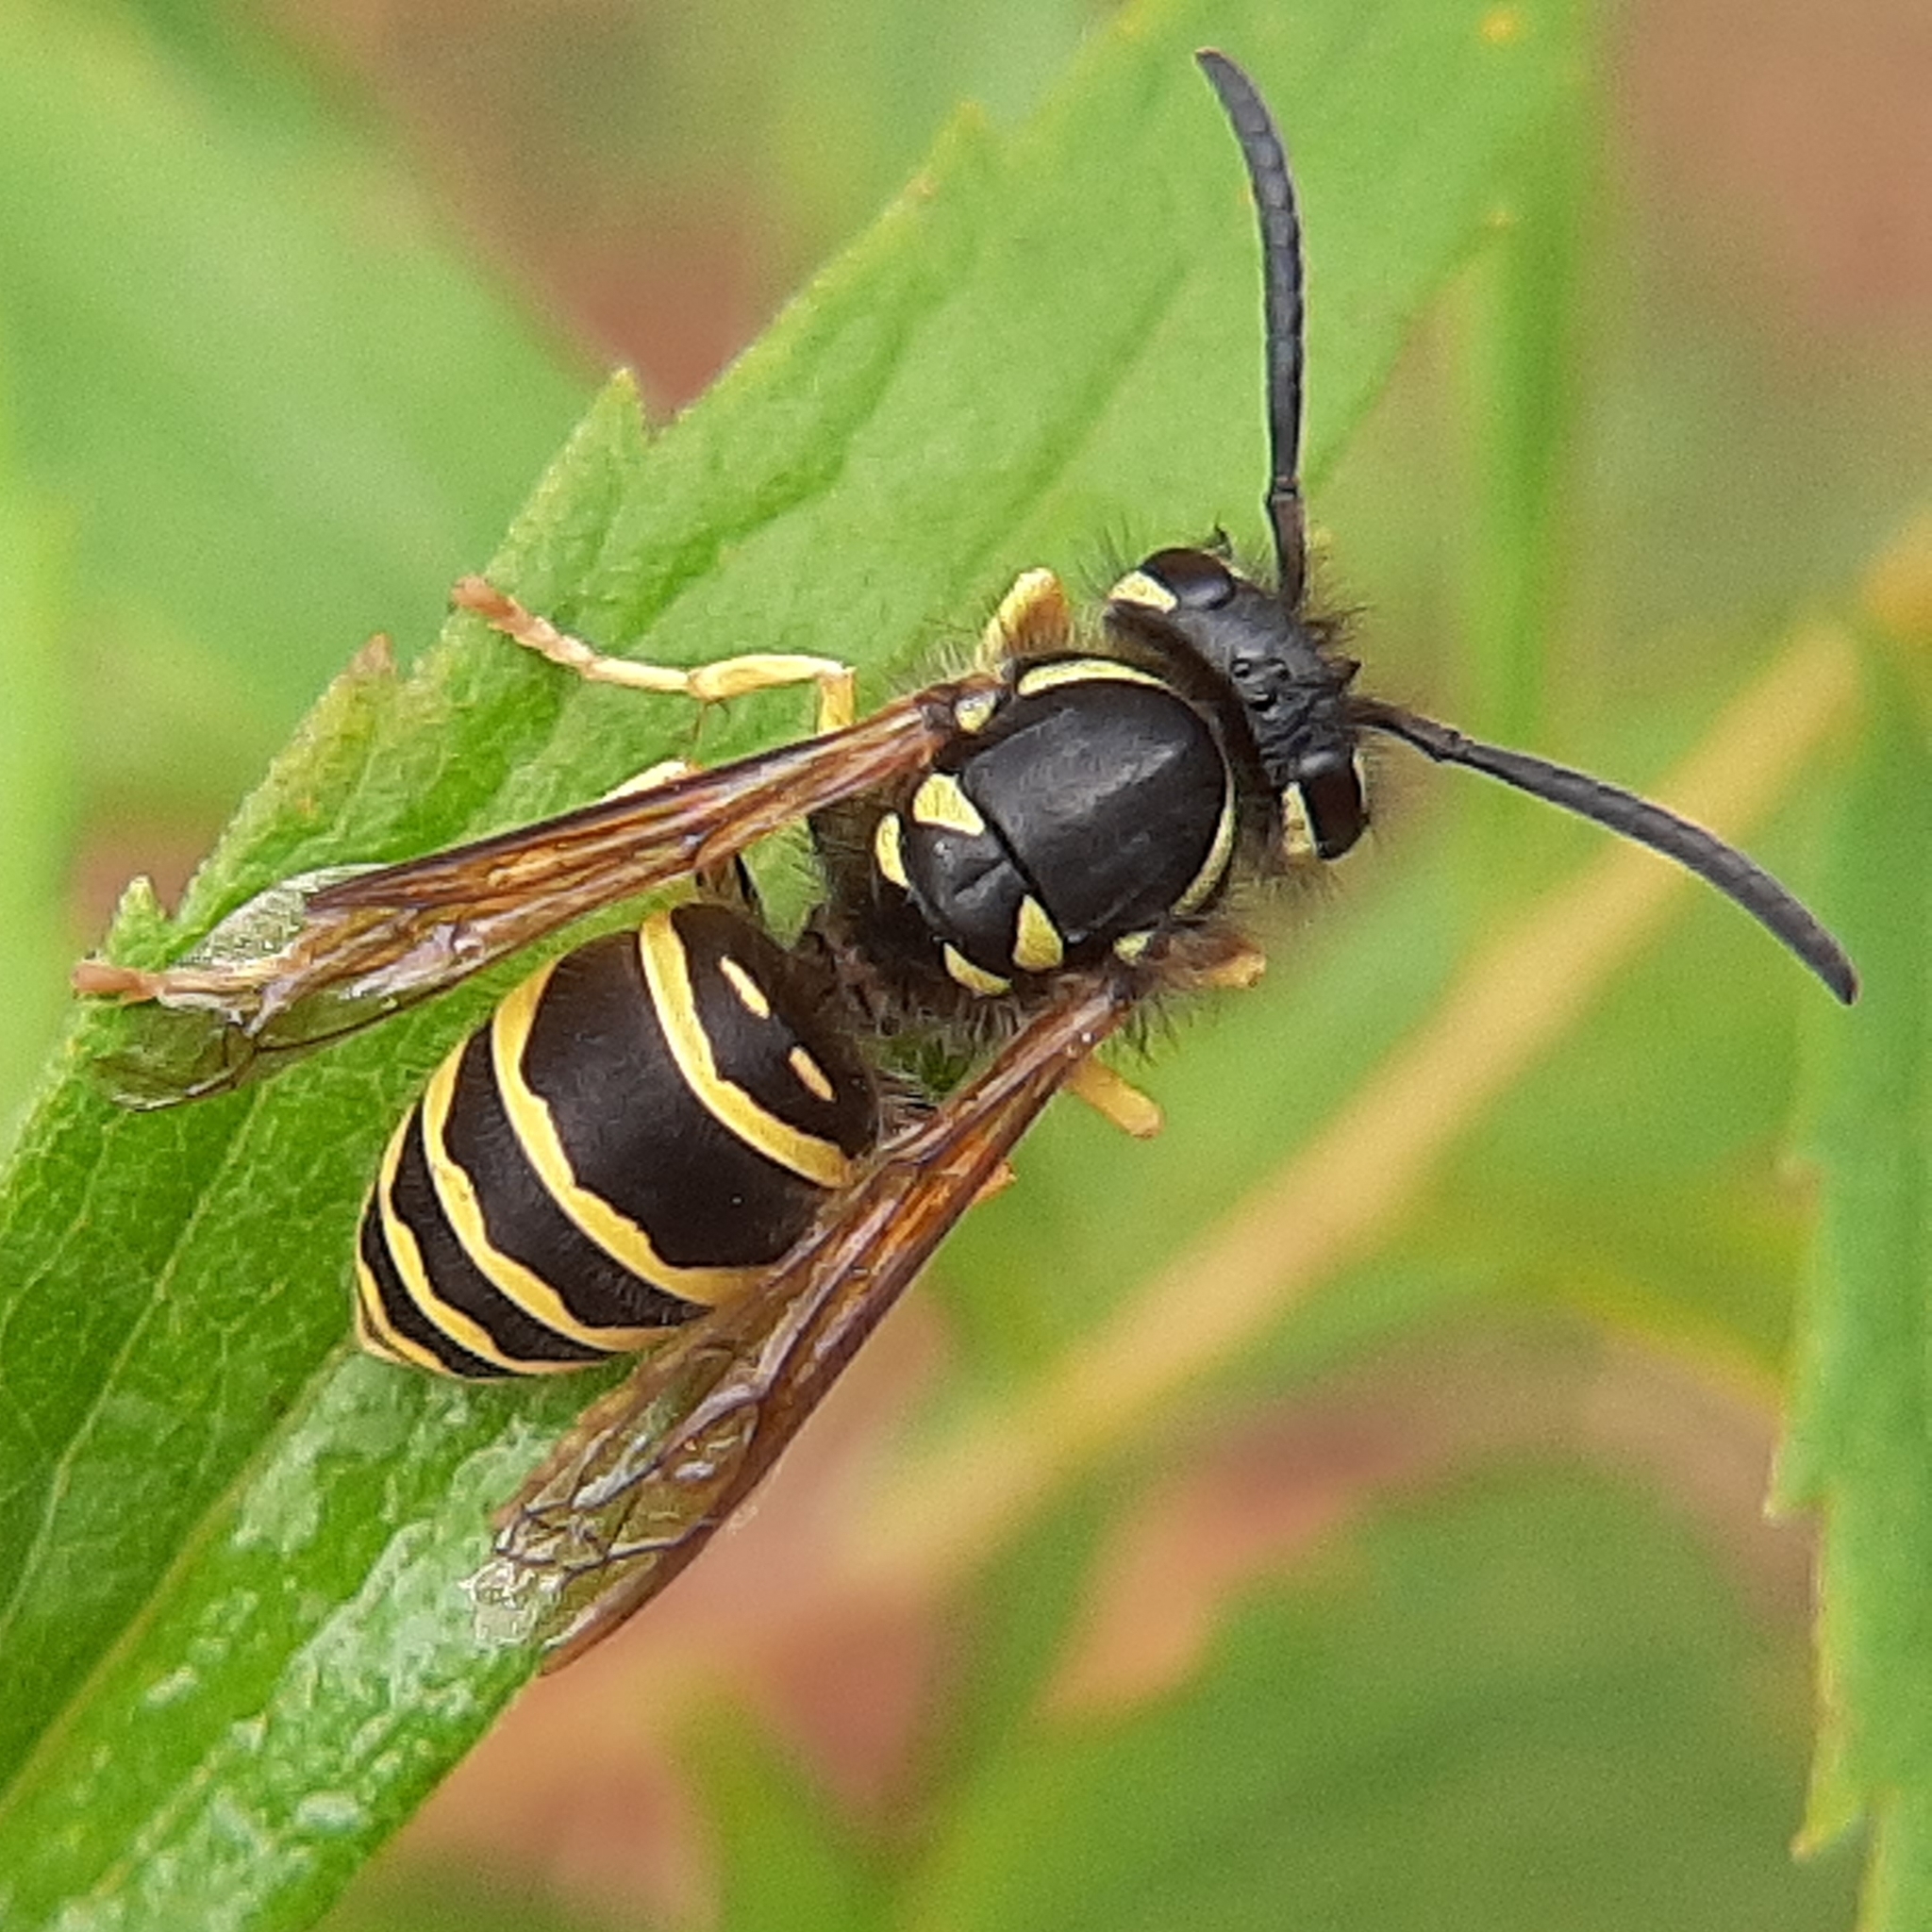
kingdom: Animalia
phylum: Arthropoda
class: Insecta
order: Hymenoptera
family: Vespidae
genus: Vespula
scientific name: Vespula maculifrons
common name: Eastern yellowjacket
